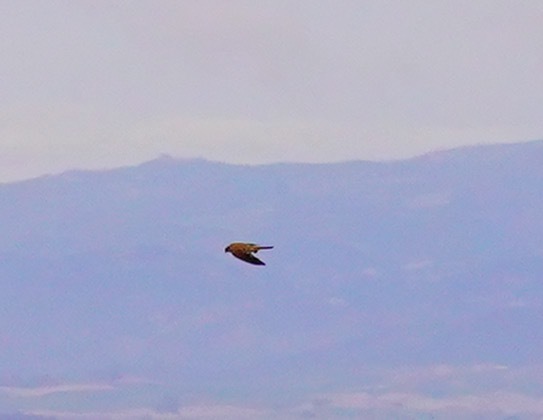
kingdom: Animalia
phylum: Chordata
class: Aves
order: Falconiformes
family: Falconidae
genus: Falco
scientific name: Falco sparverius
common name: American kestrel
